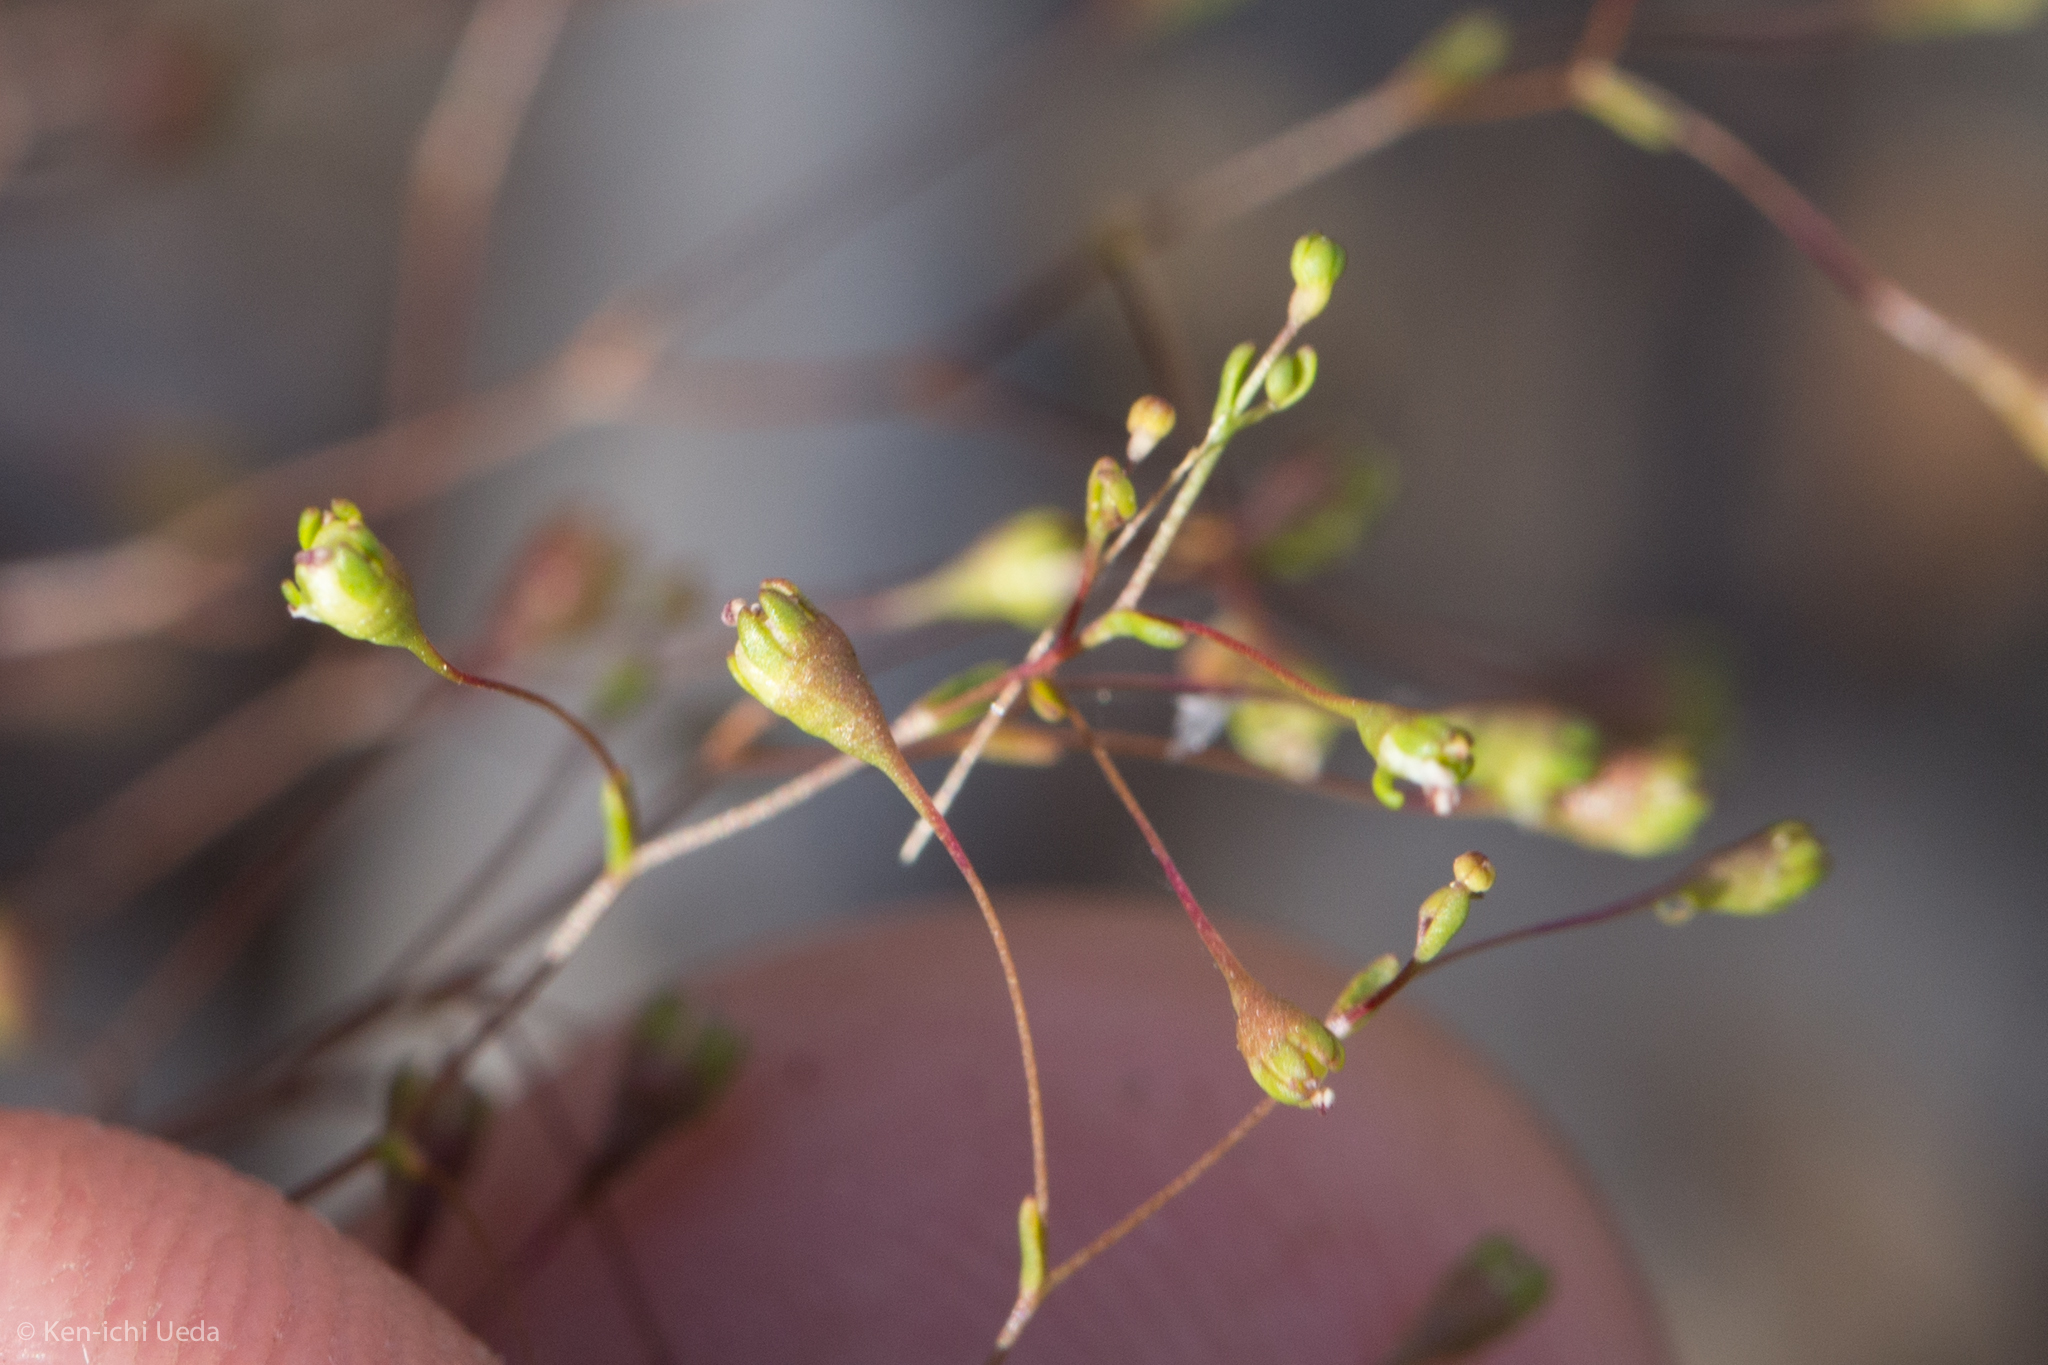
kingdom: Plantae
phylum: Tracheophyta
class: Magnoliopsida
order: Asterales
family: Campanulaceae
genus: Nemacladus
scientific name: Nemacladus capillaris
